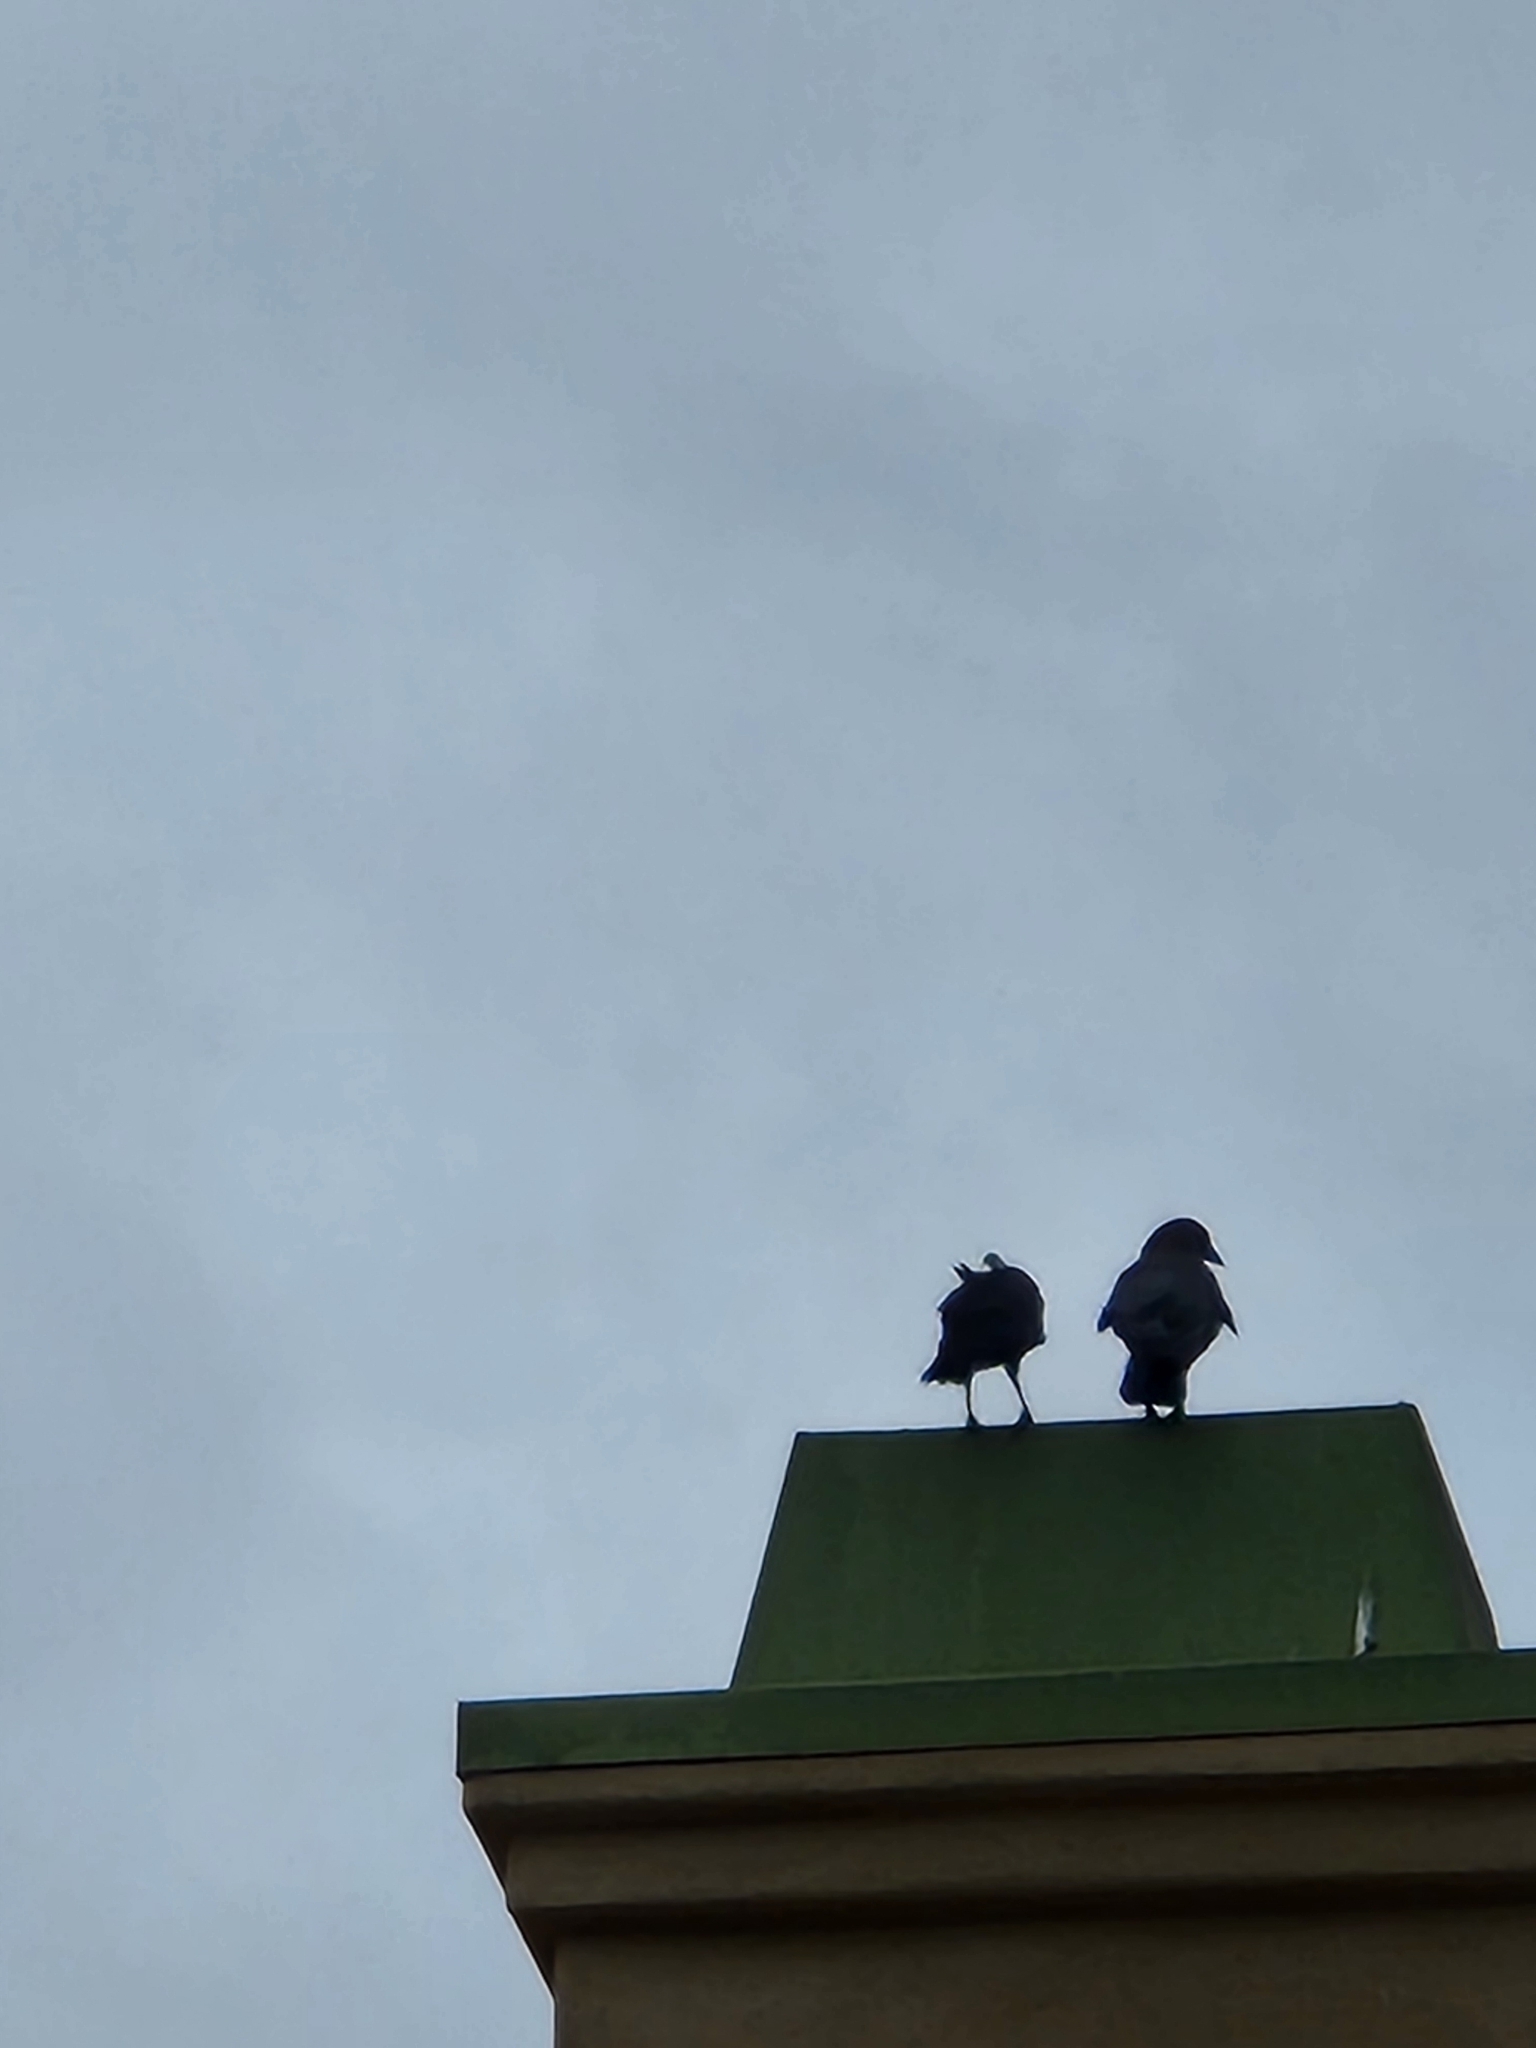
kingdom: Animalia
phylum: Chordata
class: Aves
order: Passeriformes
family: Corvidae
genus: Corvus
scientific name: Corvus brachyrhynchos
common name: American crow
